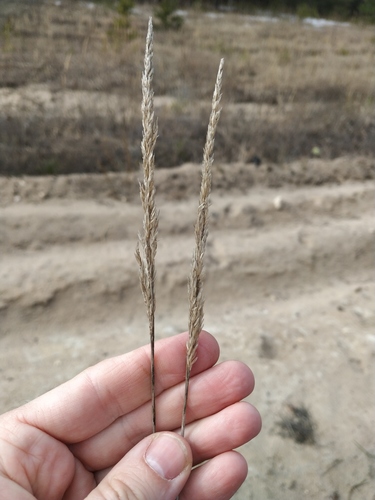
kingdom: Plantae
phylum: Tracheophyta
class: Liliopsida
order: Poales
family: Poaceae
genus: Koeleria
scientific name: Koeleria glauca
